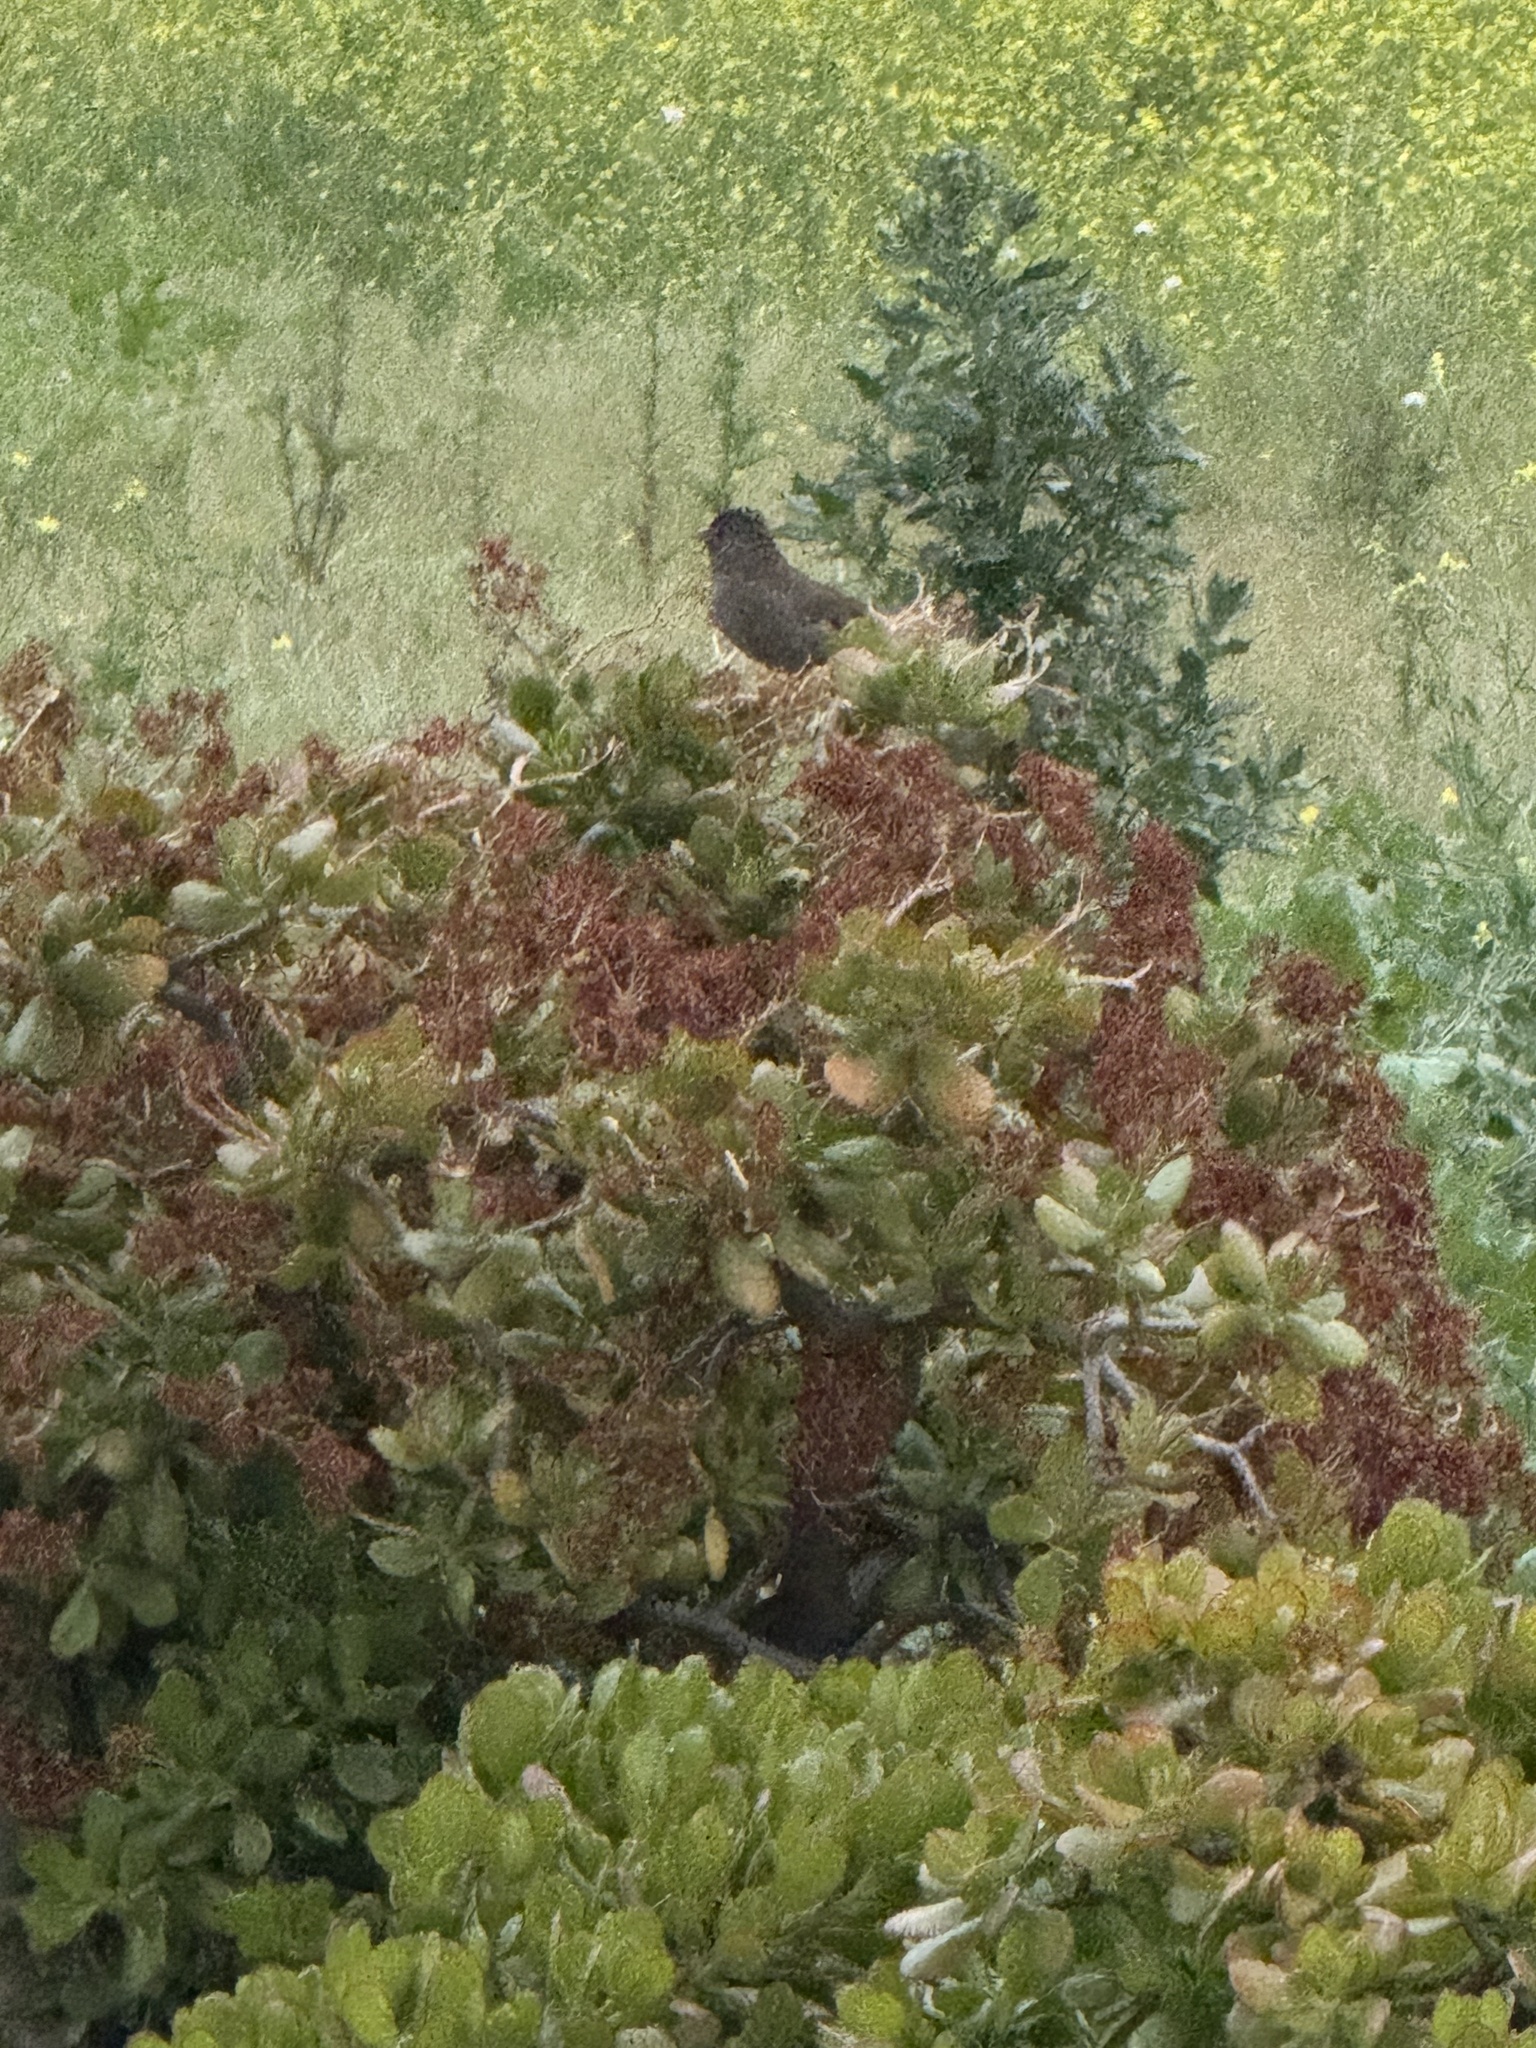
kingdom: Animalia
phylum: Chordata
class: Aves
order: Passeriformes
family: Passerellidae
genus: Melozone
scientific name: Melozone crissalis
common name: California towhee
